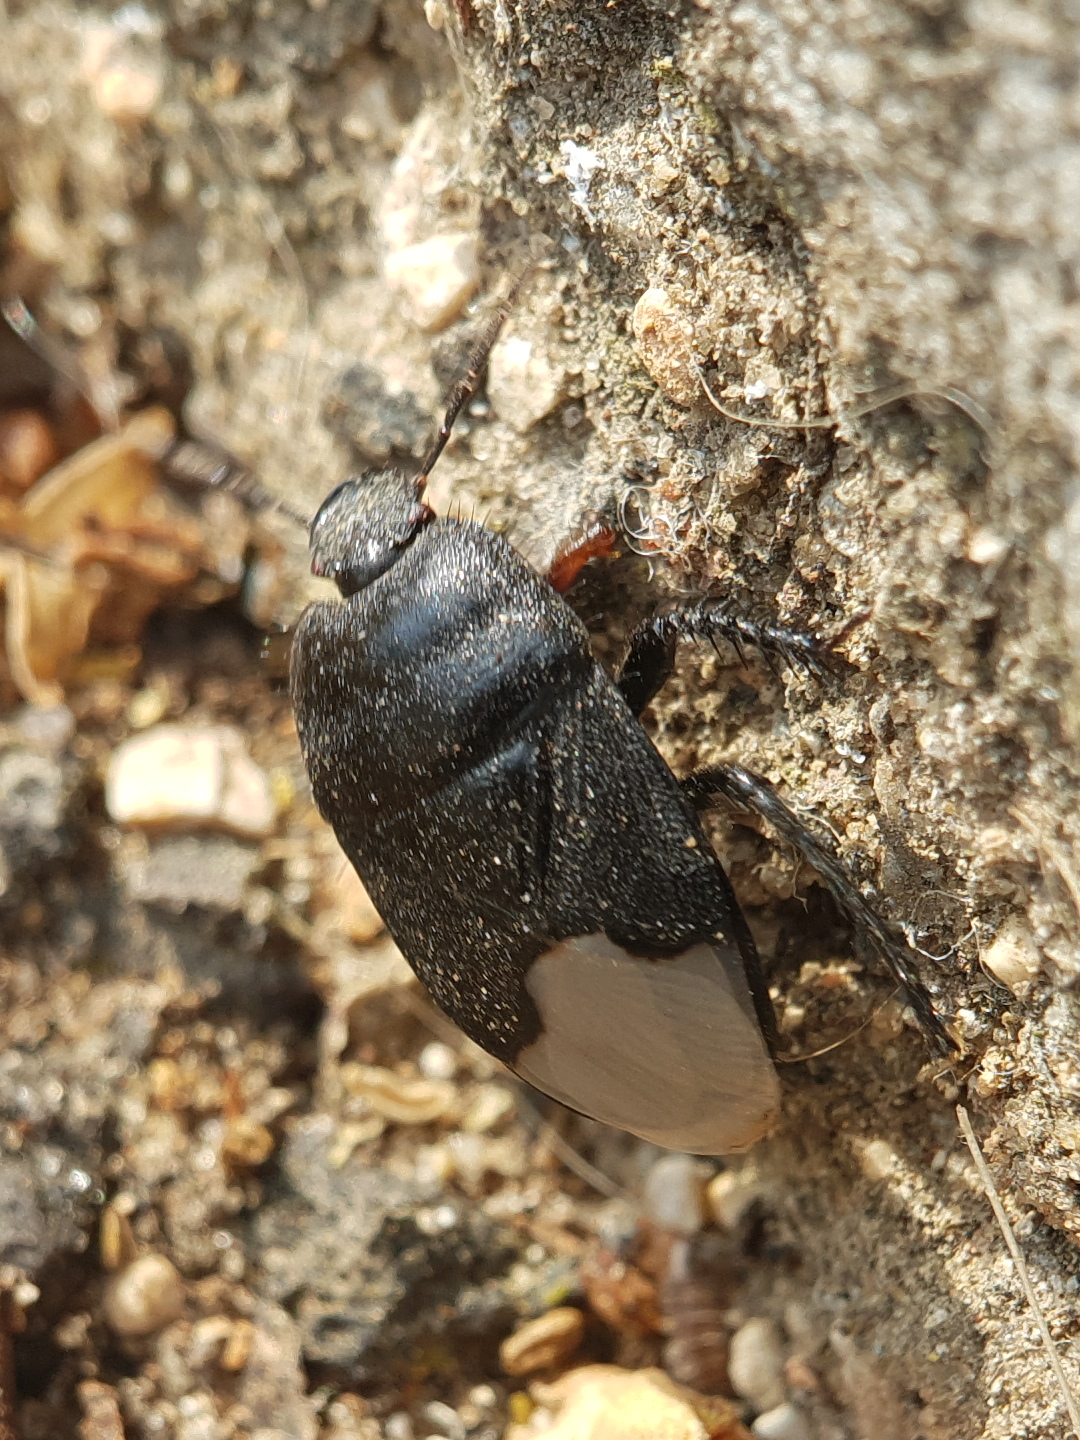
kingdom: Animalia
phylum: Arthropoda
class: Insecta
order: Hemiptera
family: Cydnidae
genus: Cydnus
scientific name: Cydnus aterrimus
